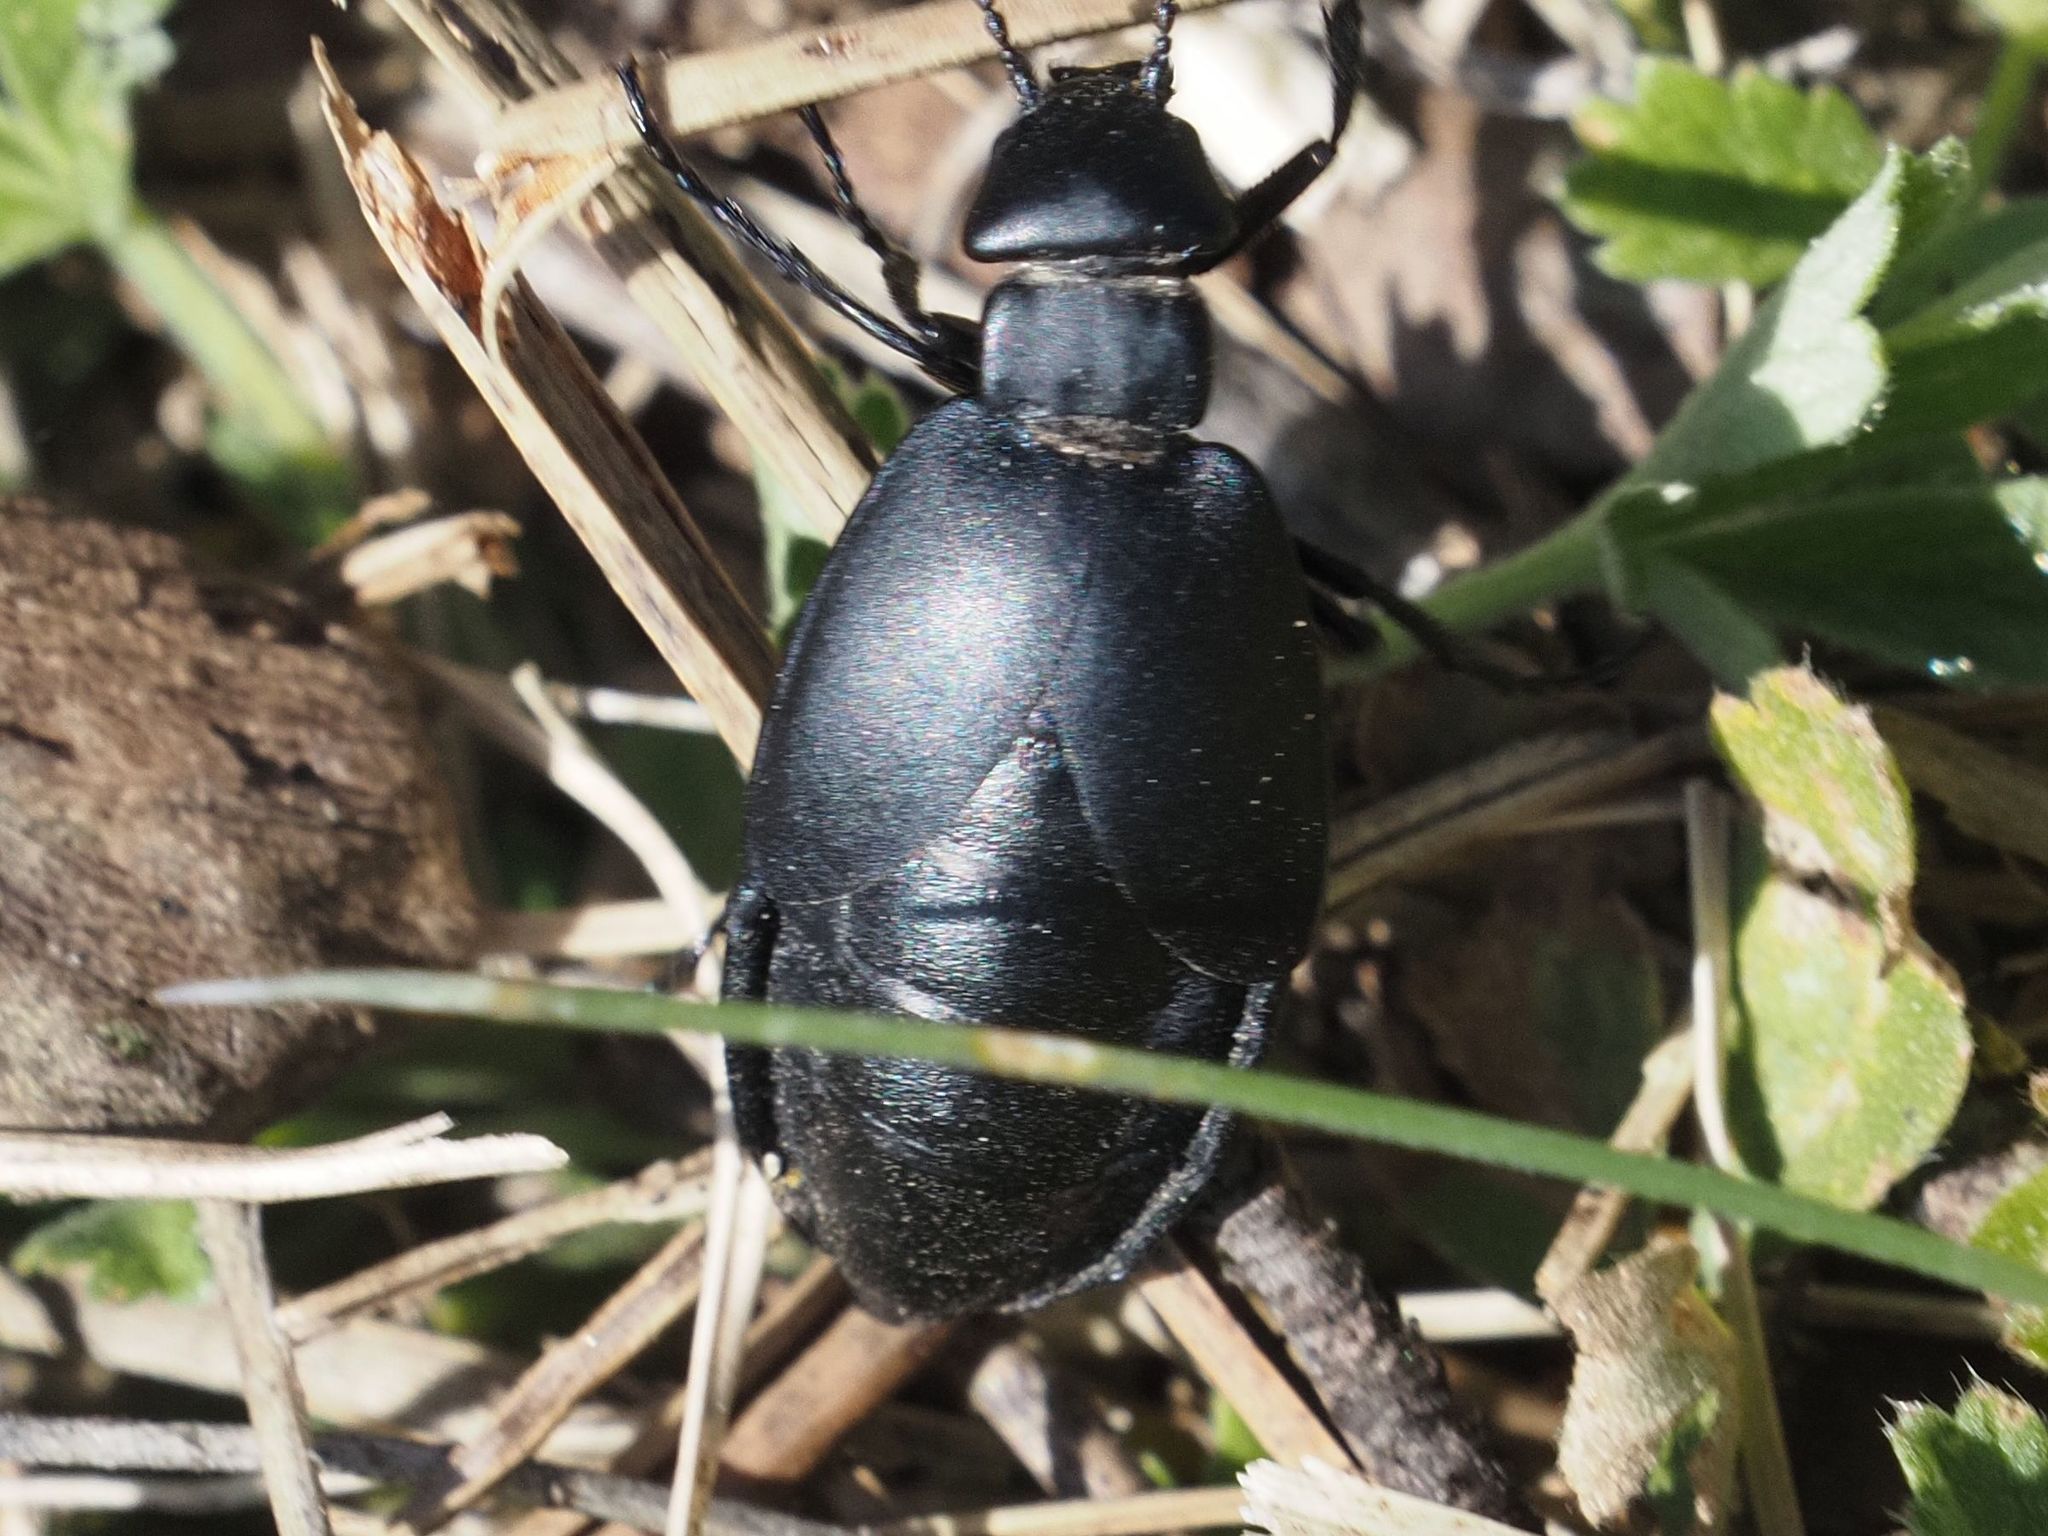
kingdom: Animalia
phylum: Arthropoda
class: Insecta
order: Coleoptera
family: Meloidae
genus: Meloe
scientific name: Meloe uralensis
